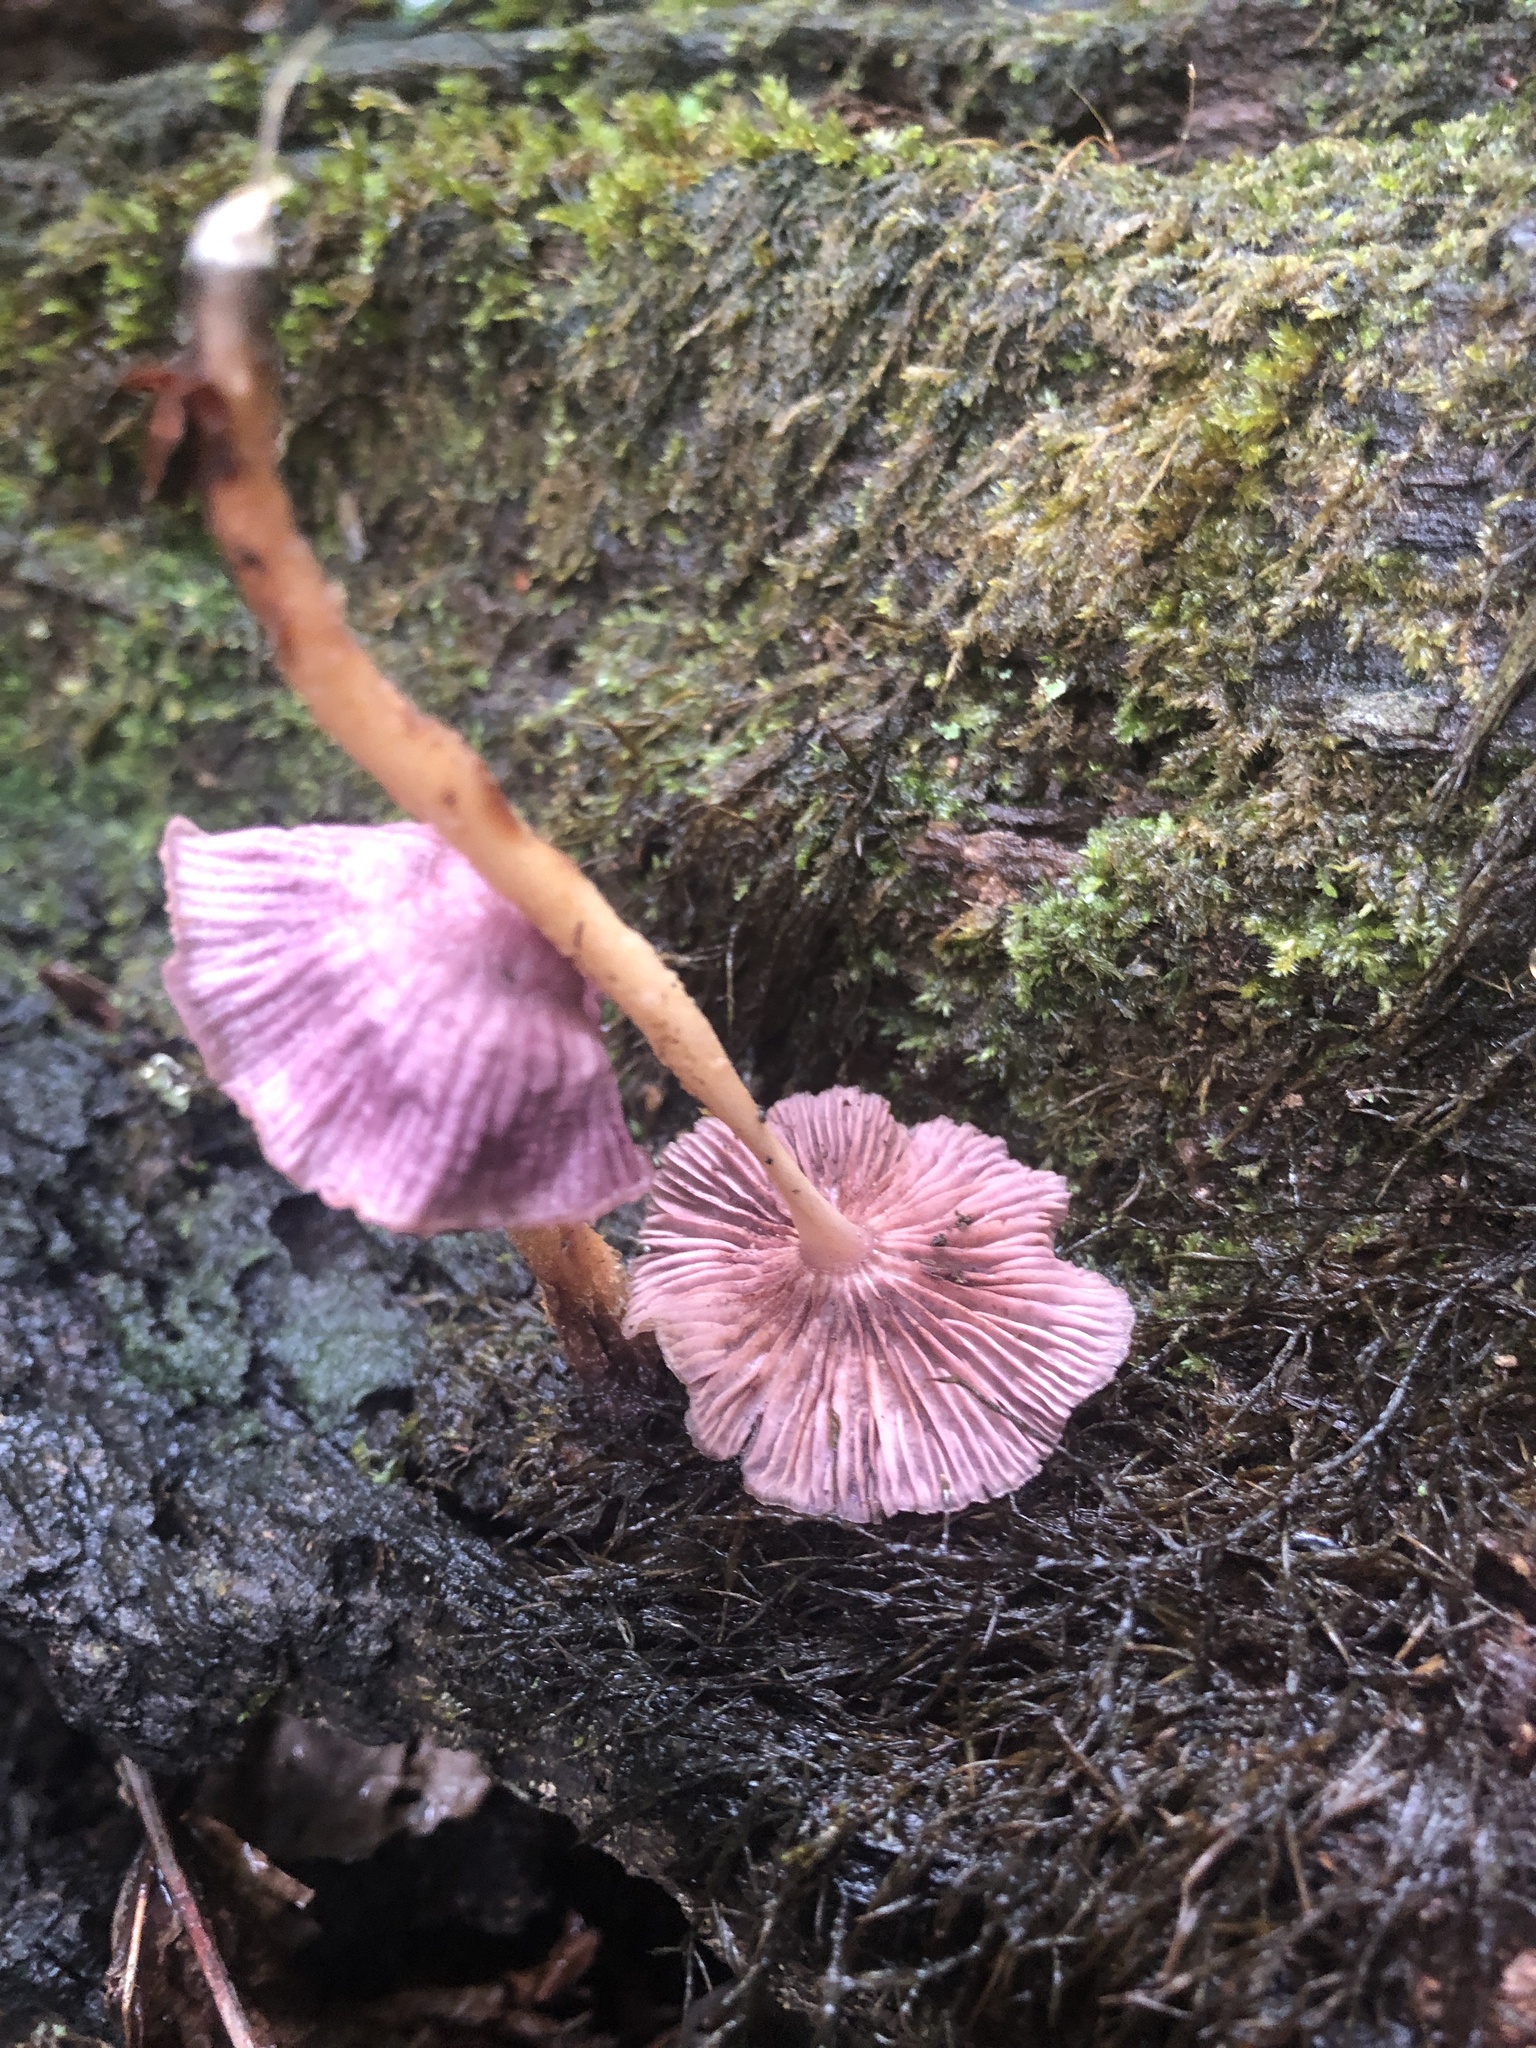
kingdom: Fungi
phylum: Basidiomycota
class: Agaricomycetes
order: Agaricales
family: Omphalotaceae
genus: Gymnopus
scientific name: Gymnopus iocephalus
